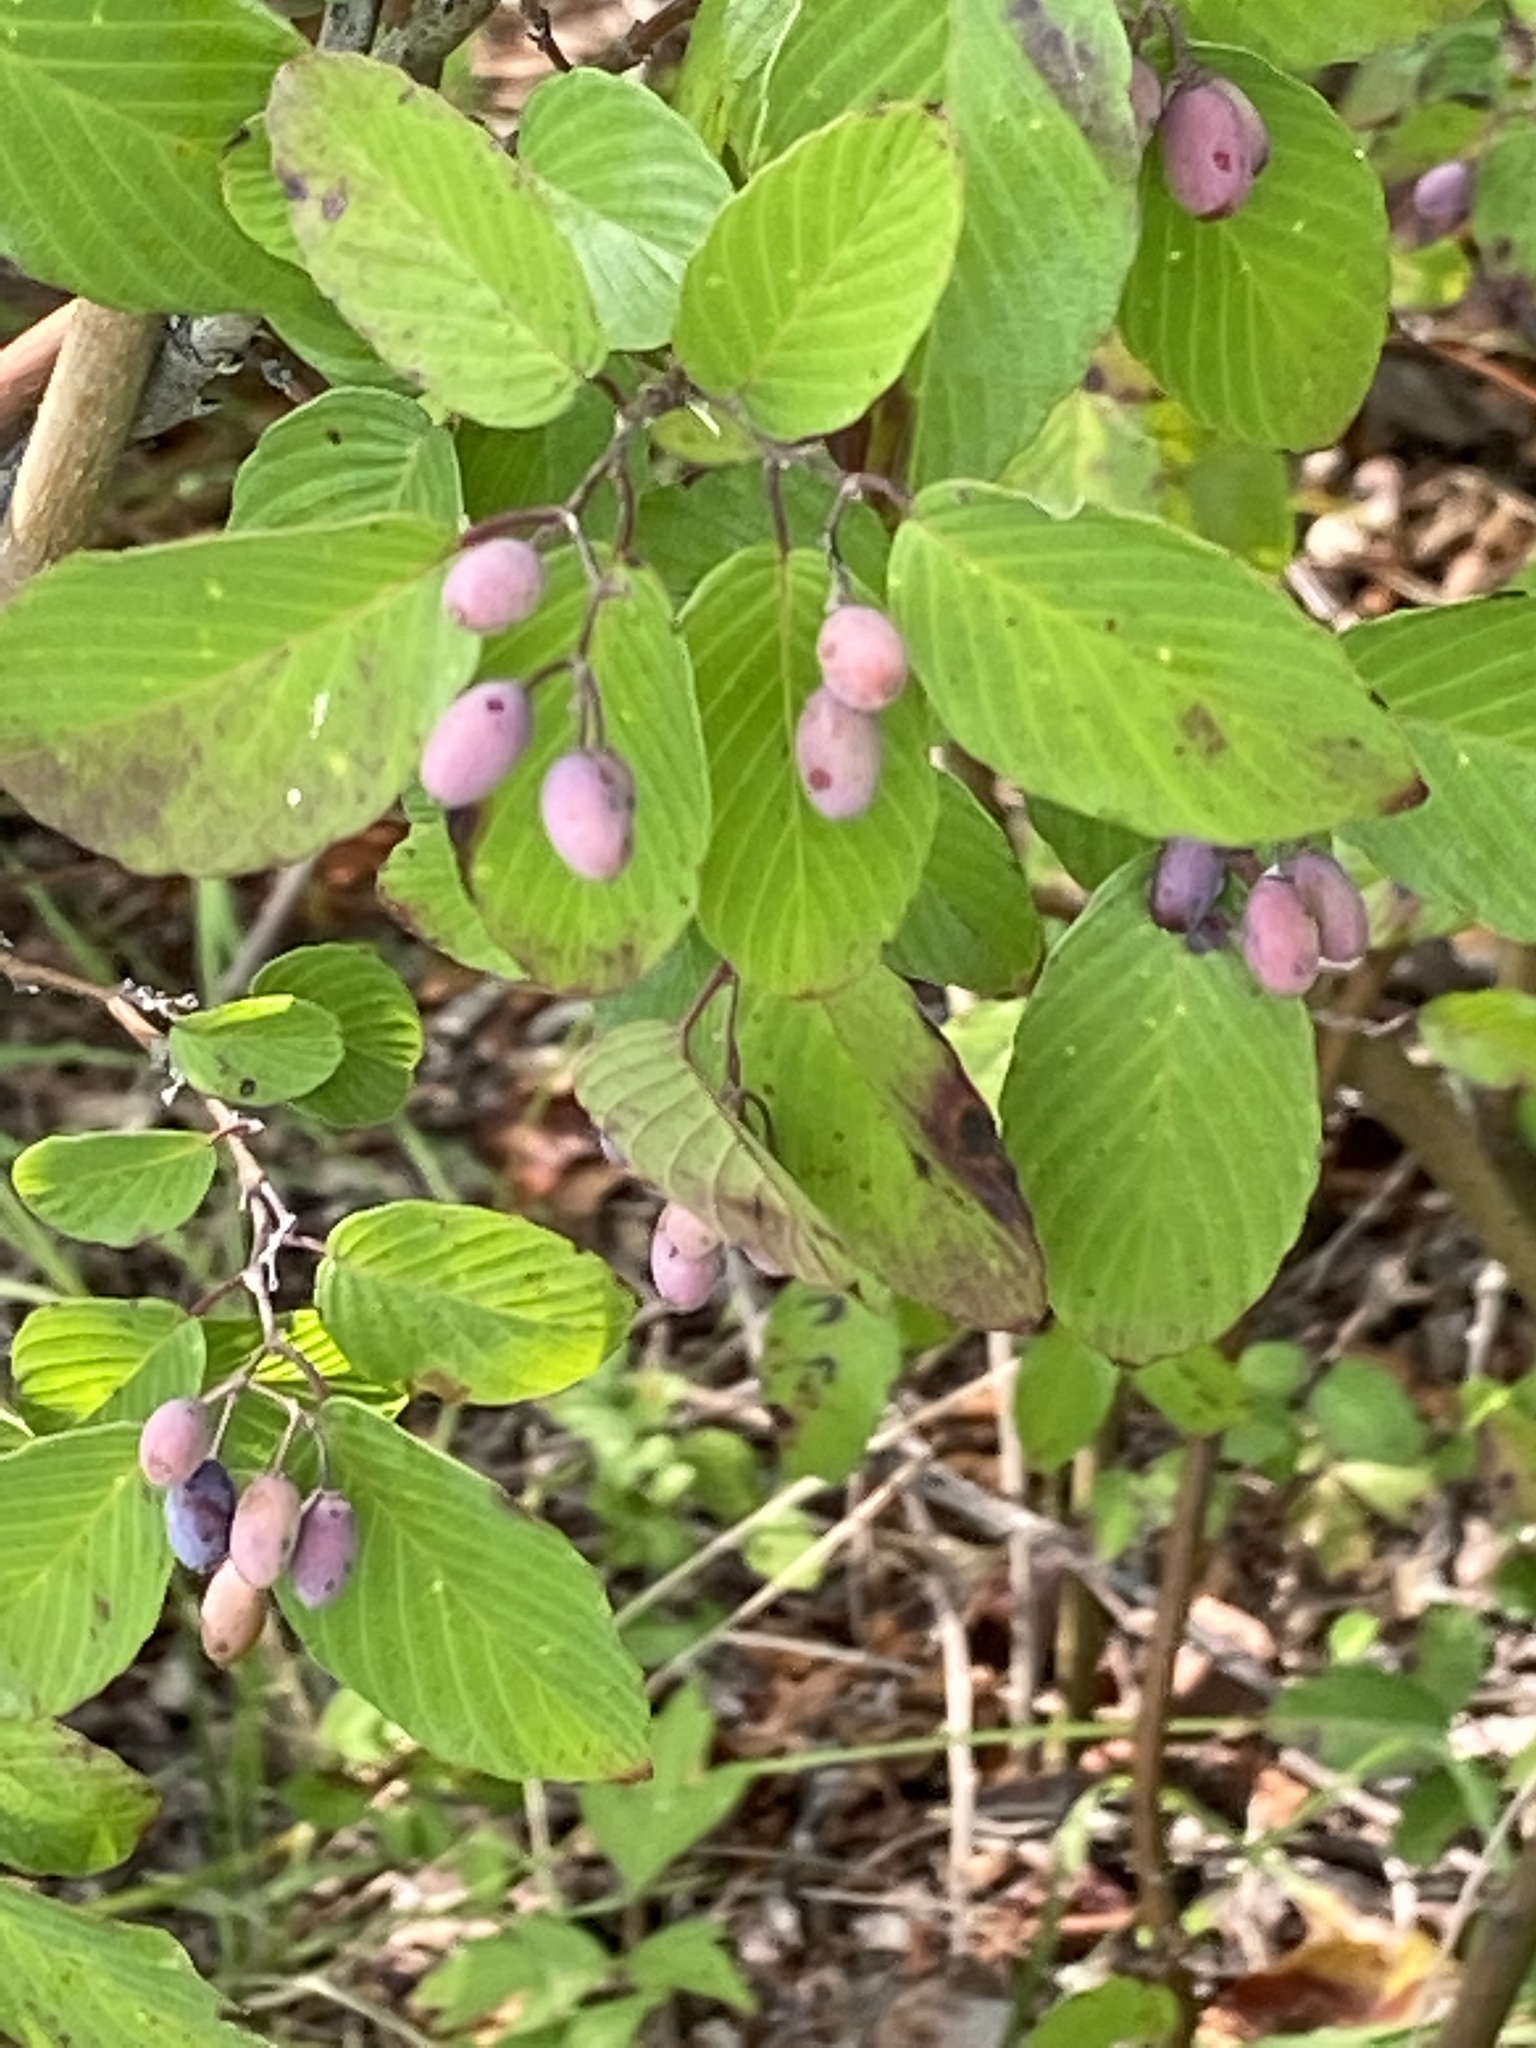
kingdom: Plantae
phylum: Tracheophyta
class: Magnoliopsida
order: Rosales
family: Rhamnaceae
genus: Berchemia
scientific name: Berchemia scandens
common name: Supplejack
